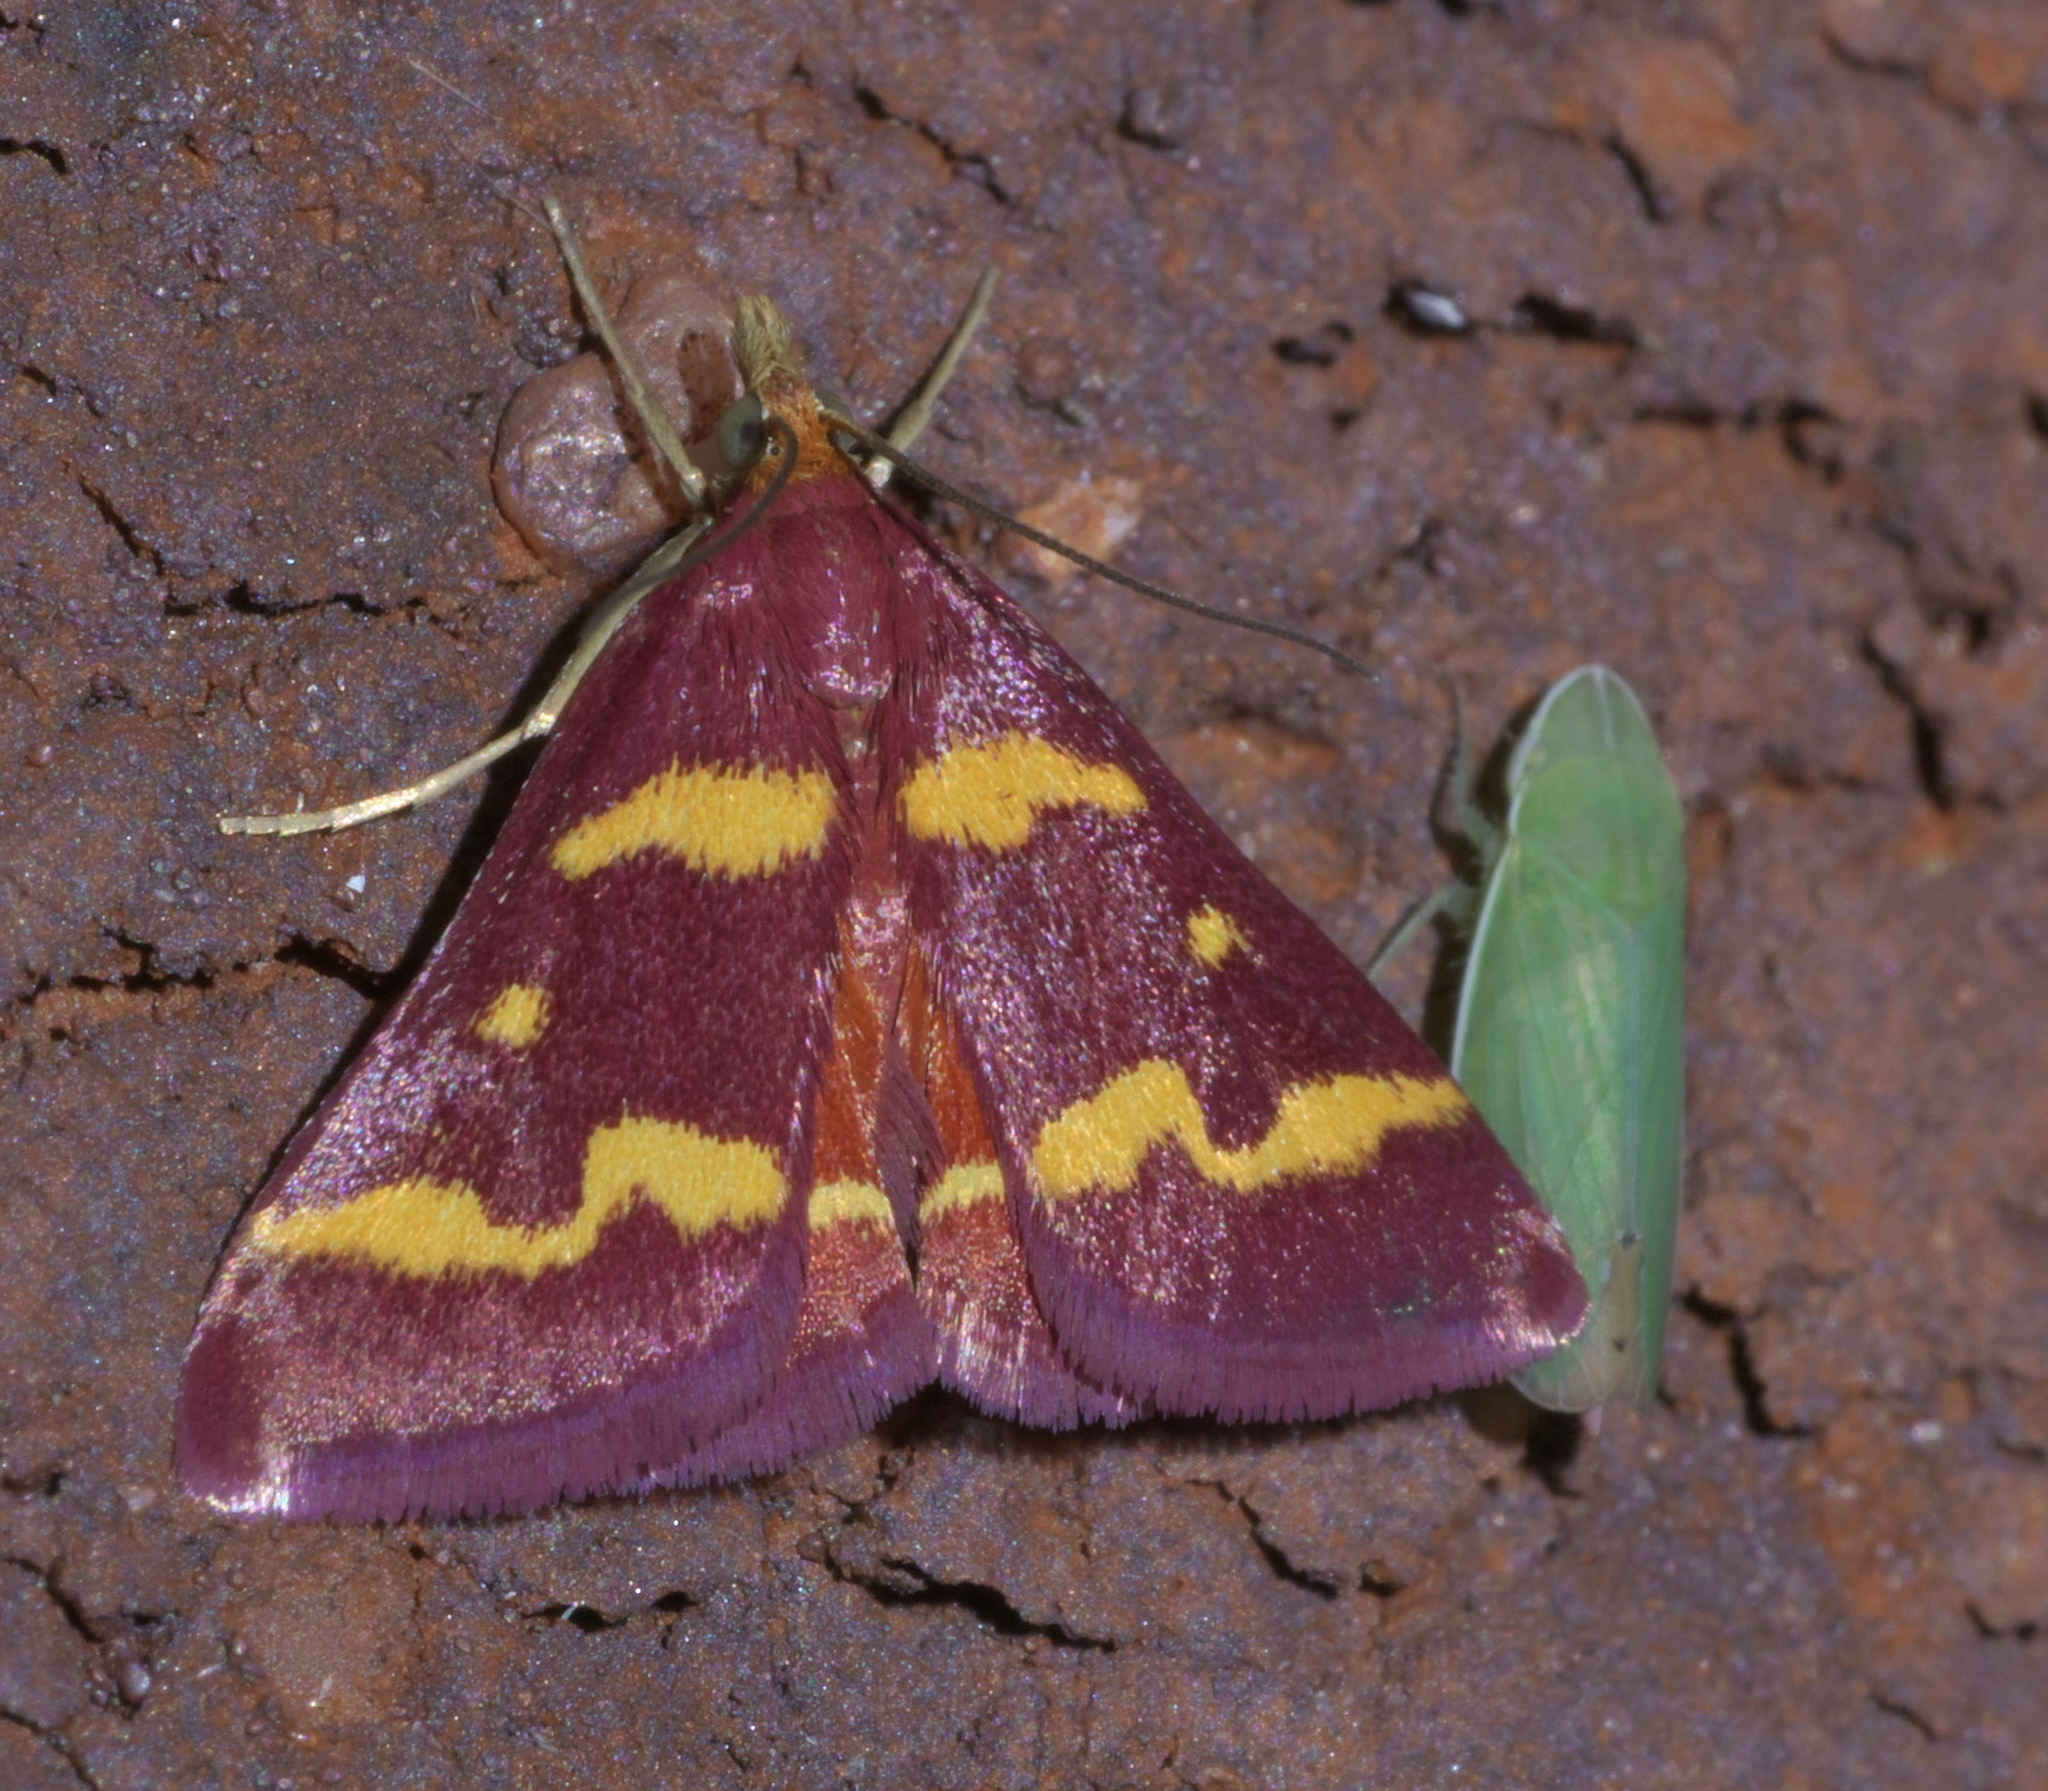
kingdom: Animalia
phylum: Arthropoda
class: Insecta
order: Hemiptera
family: Cicadellidae
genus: Memnonia
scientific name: Memnonia flavida
